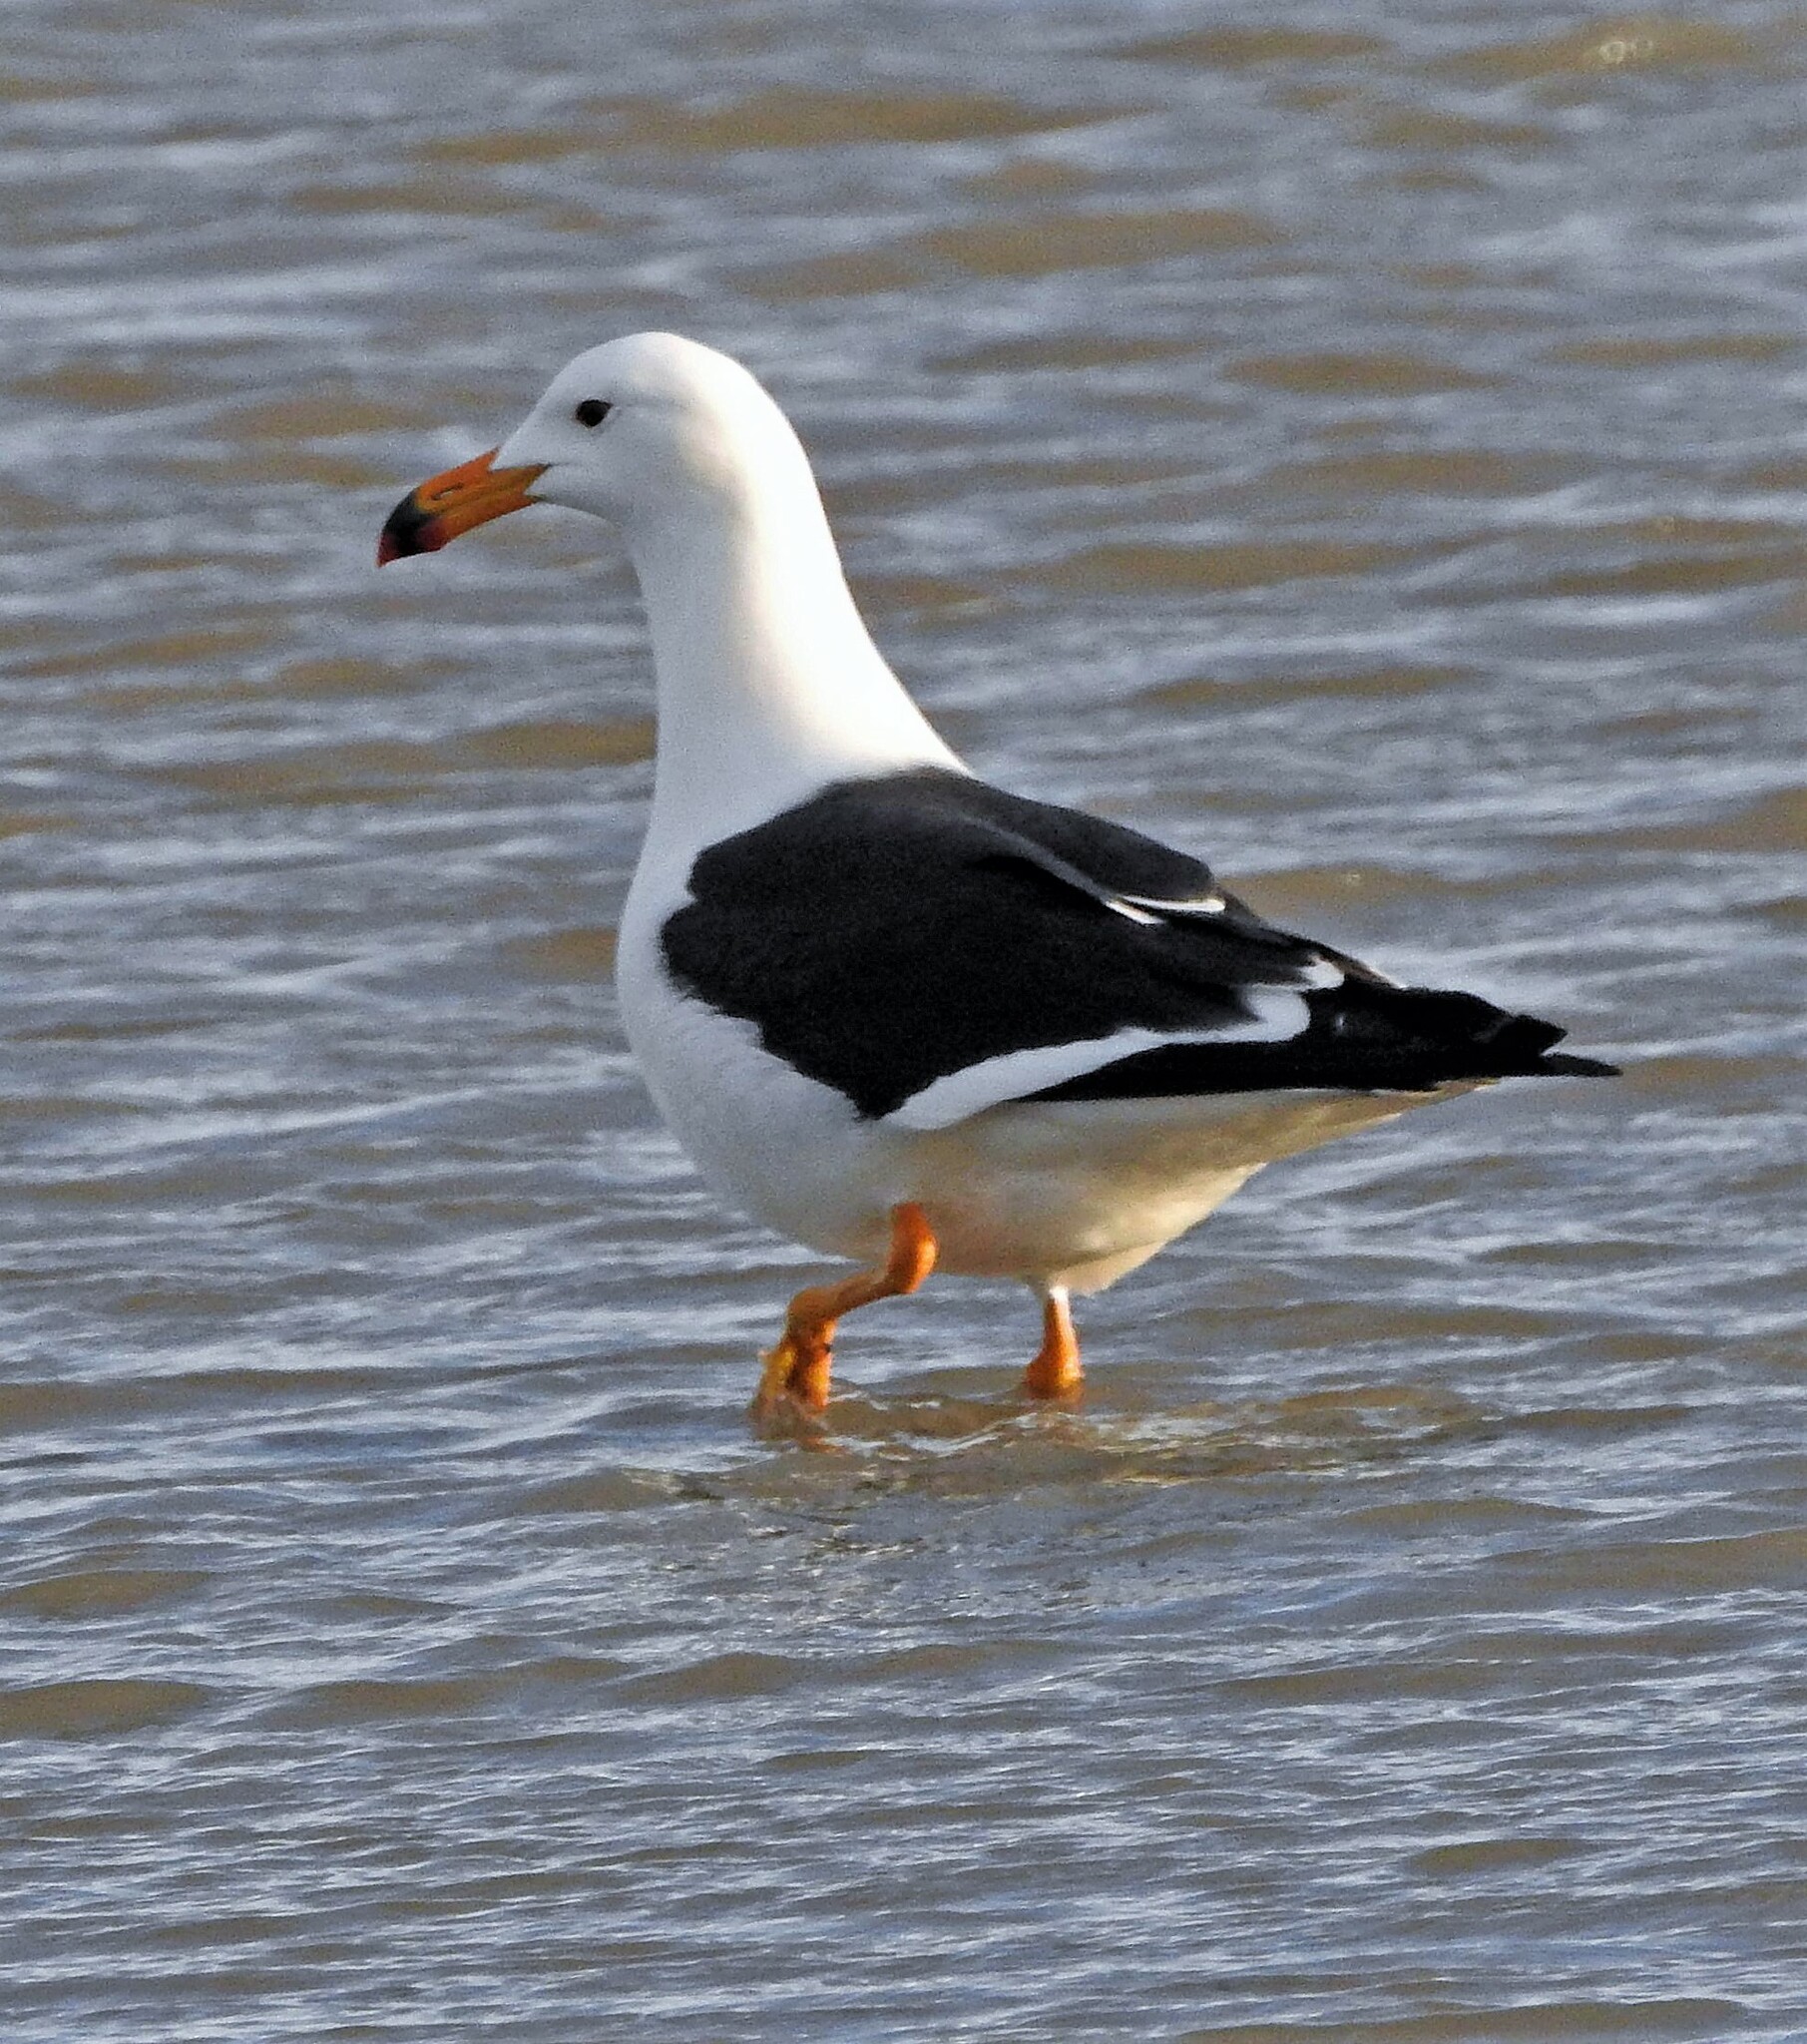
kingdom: Animalia
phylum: Chordata
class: Aves
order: Charadriiformes
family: Laridae
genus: Larus
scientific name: Larus atlanticus
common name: Olrog's gull
